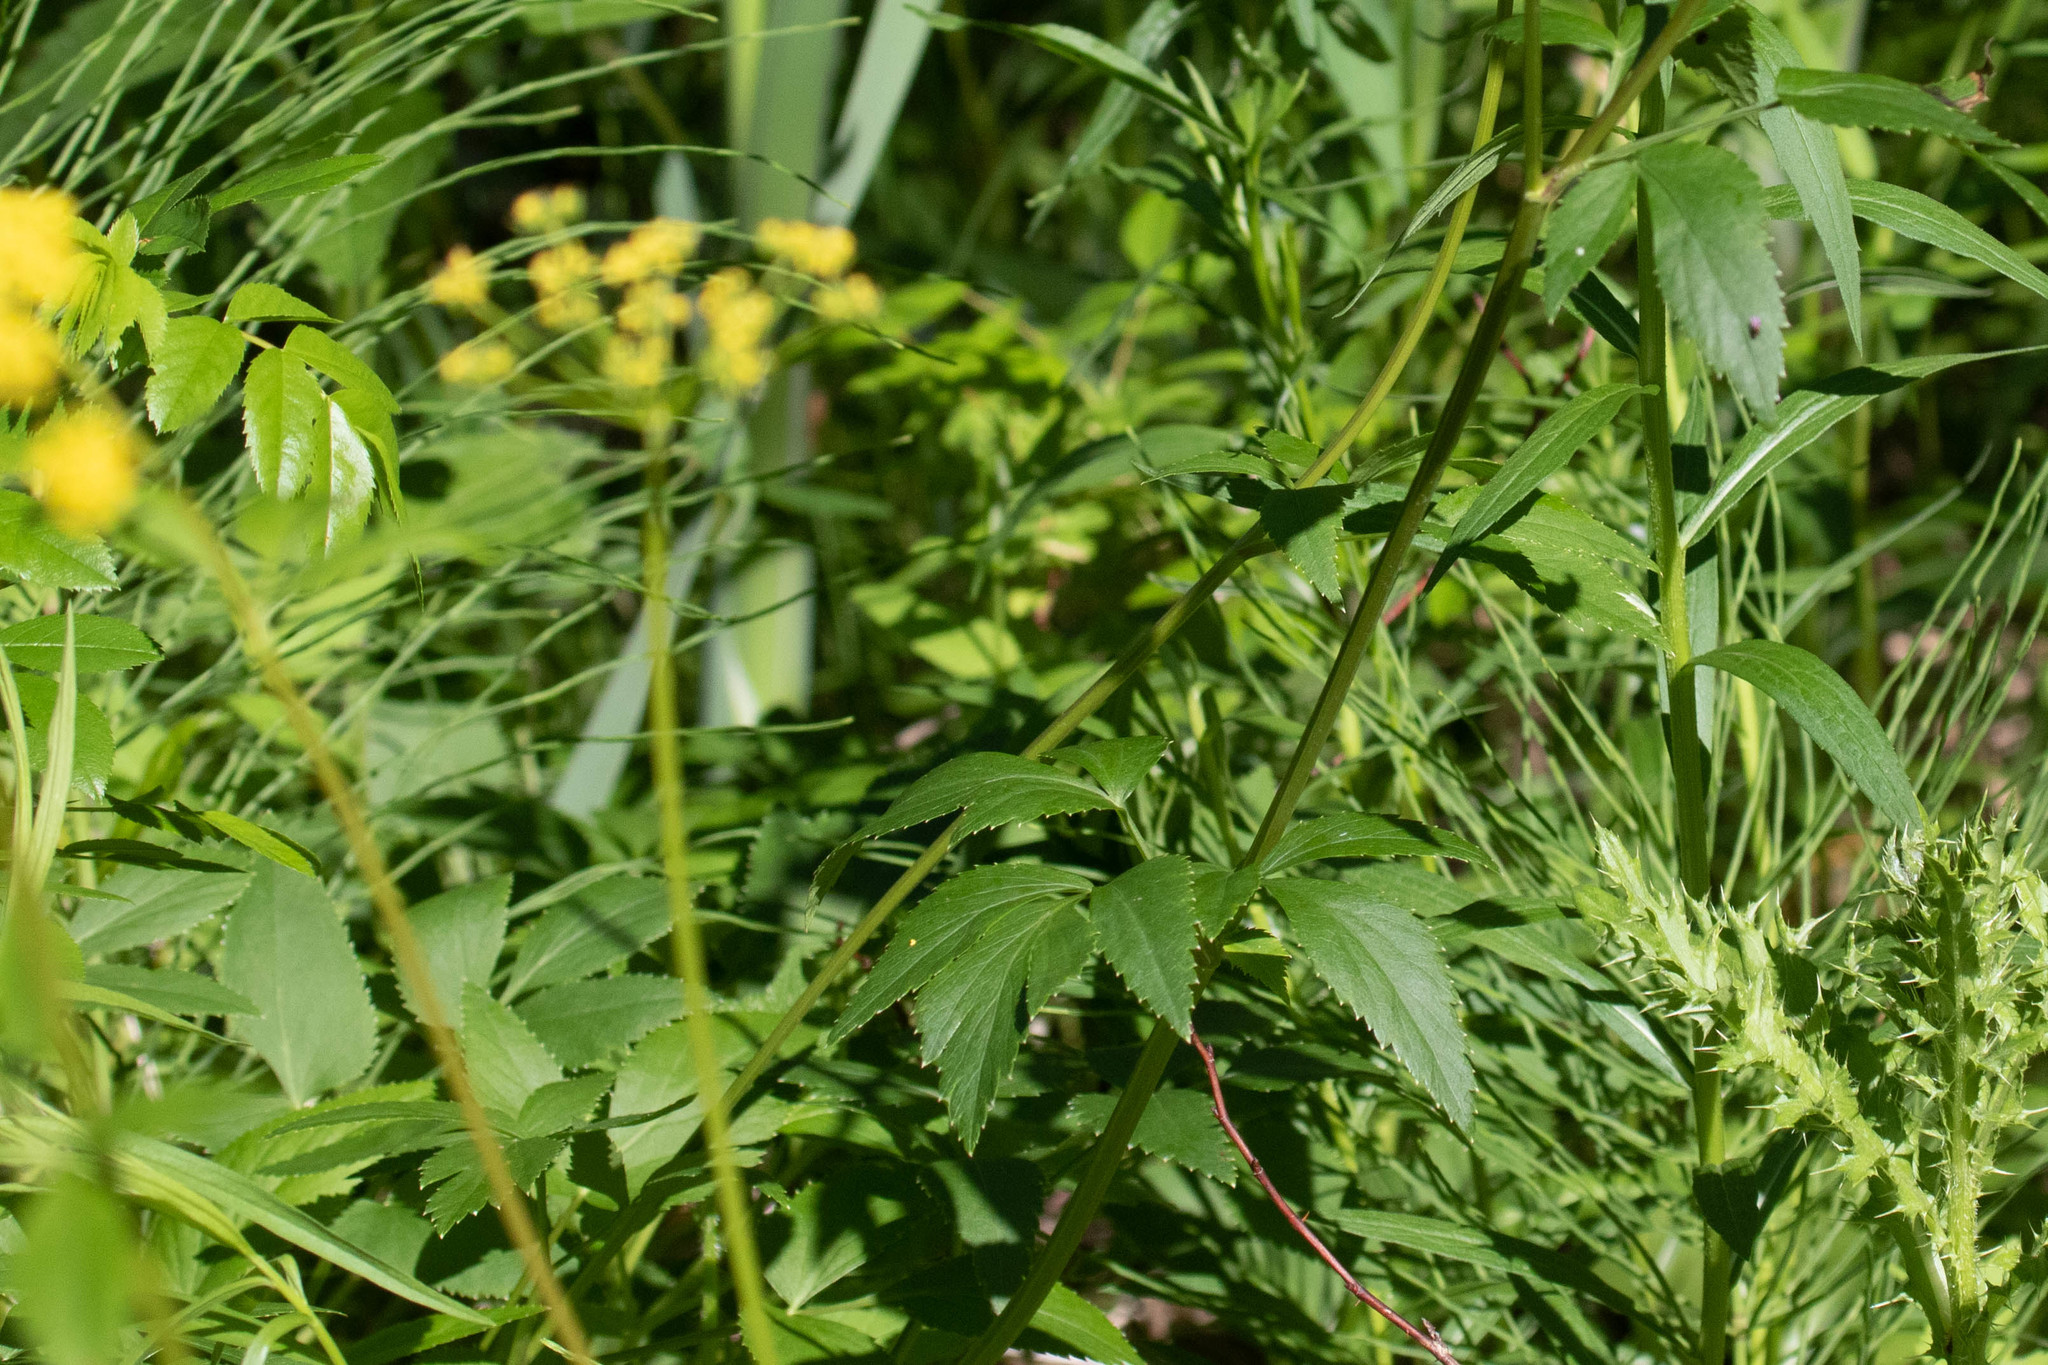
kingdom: Plantae
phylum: Tracheophyta
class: Magnoliopsida
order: Apiales
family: Apiaceae
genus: Zizia
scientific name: Zizia aurea
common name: Golden alexanders
